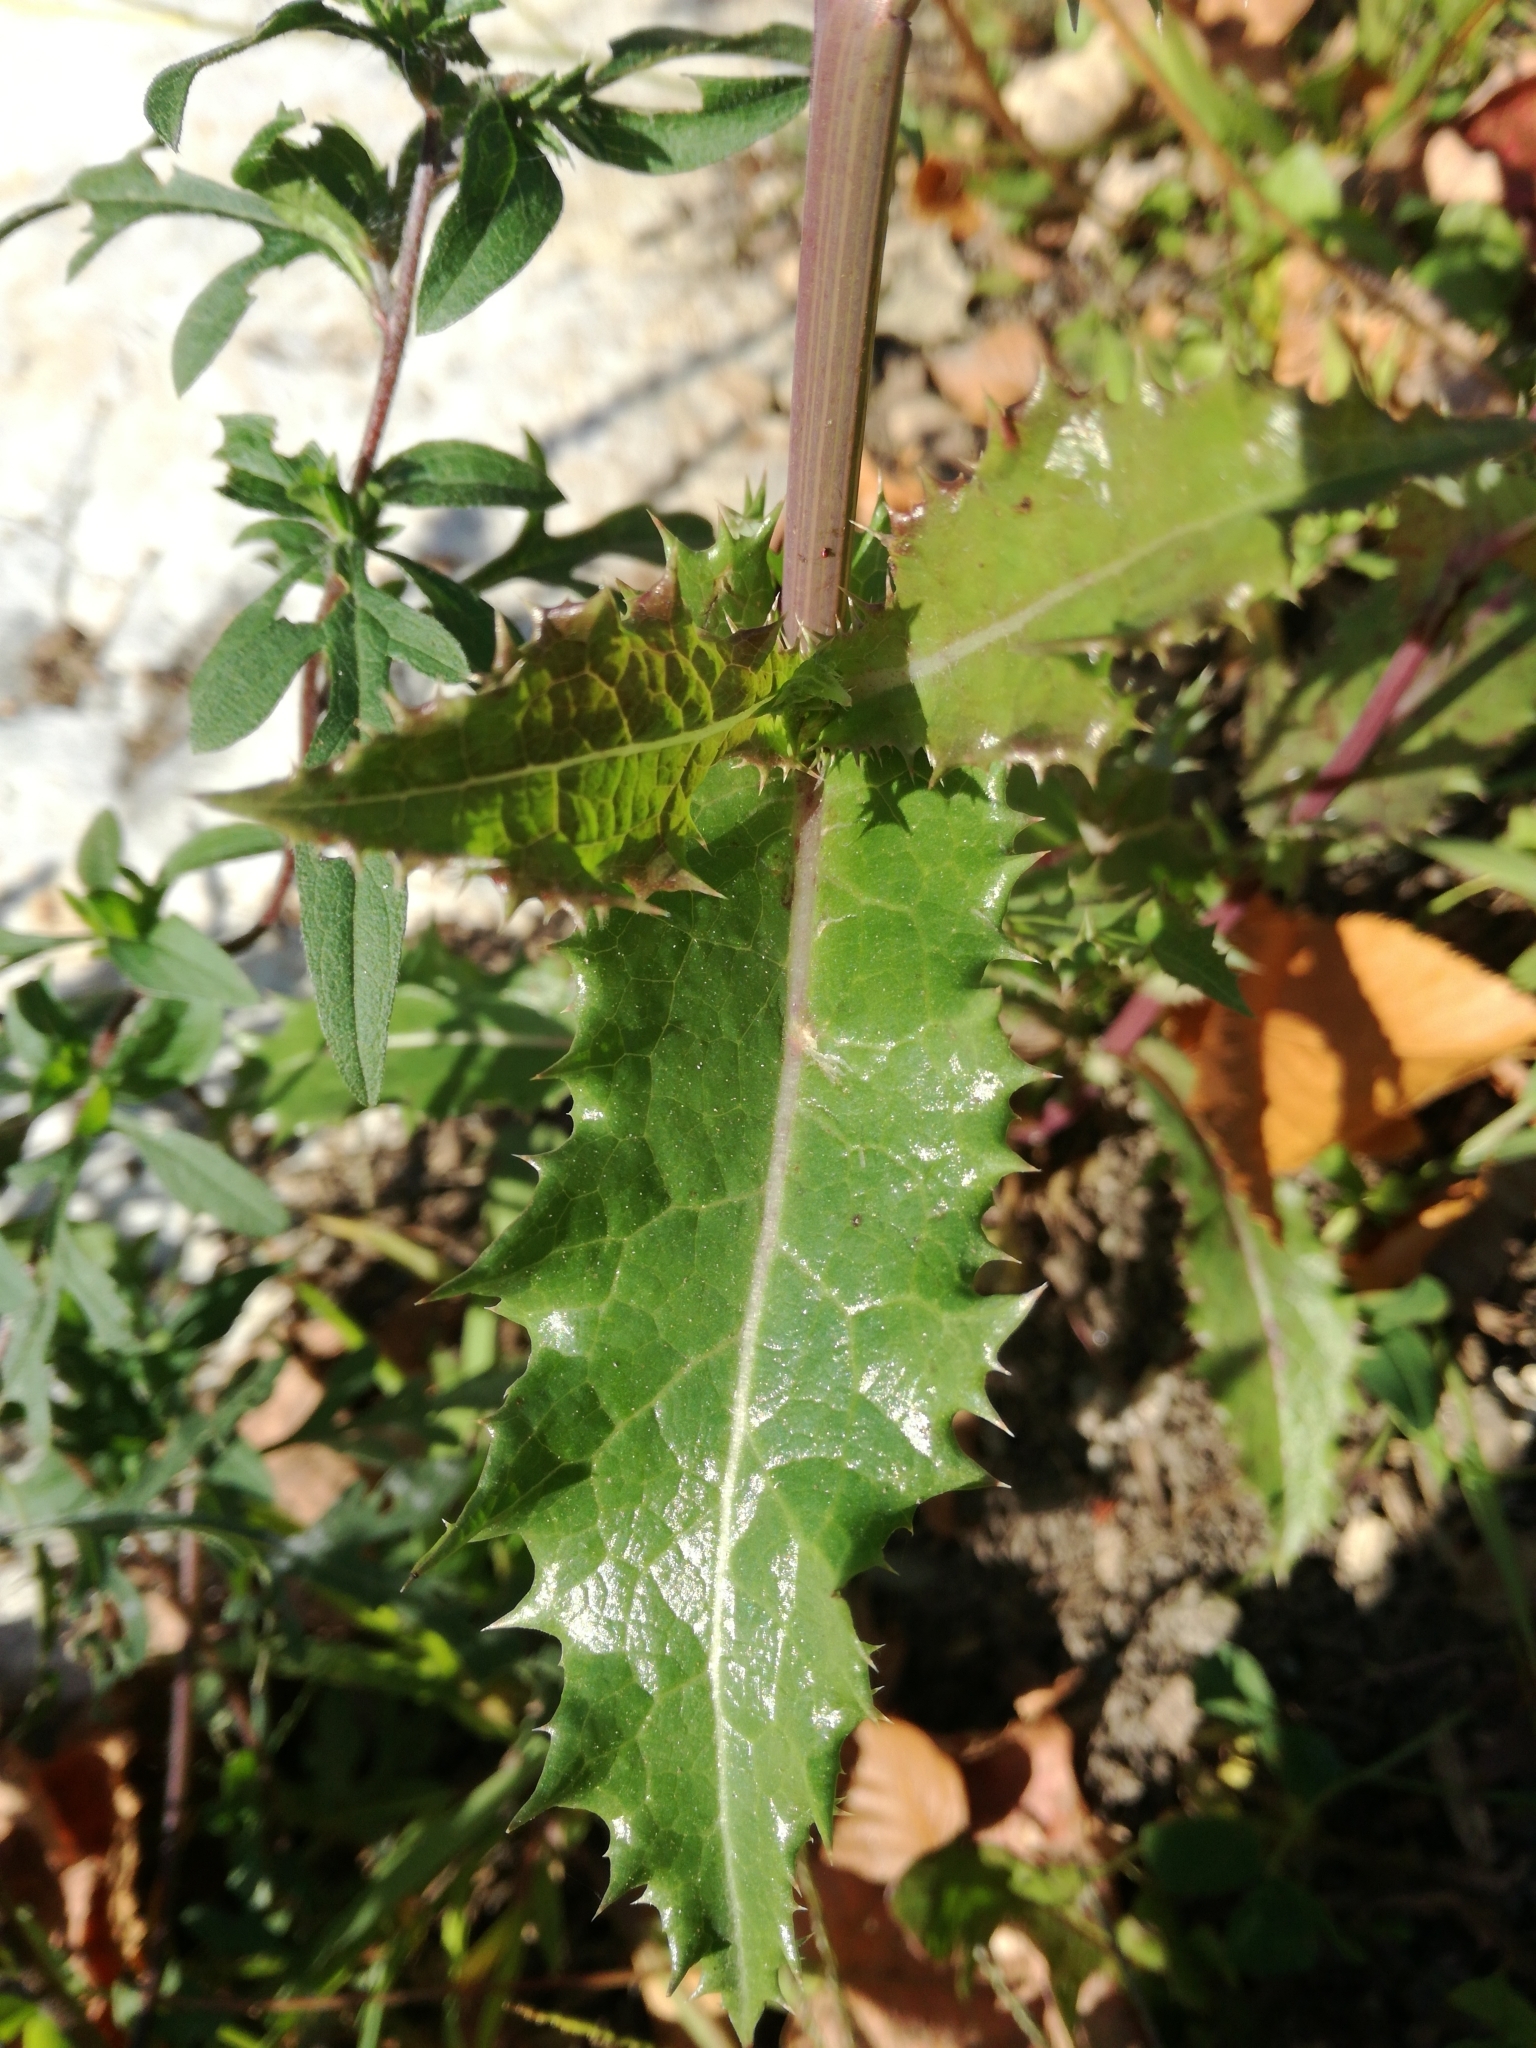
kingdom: Plantae
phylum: Tracheophyta
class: Magnoliopsida
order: Asterales
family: Asteraceae
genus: Sonchus
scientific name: Sonchus asper
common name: Prickly sow-thistle
